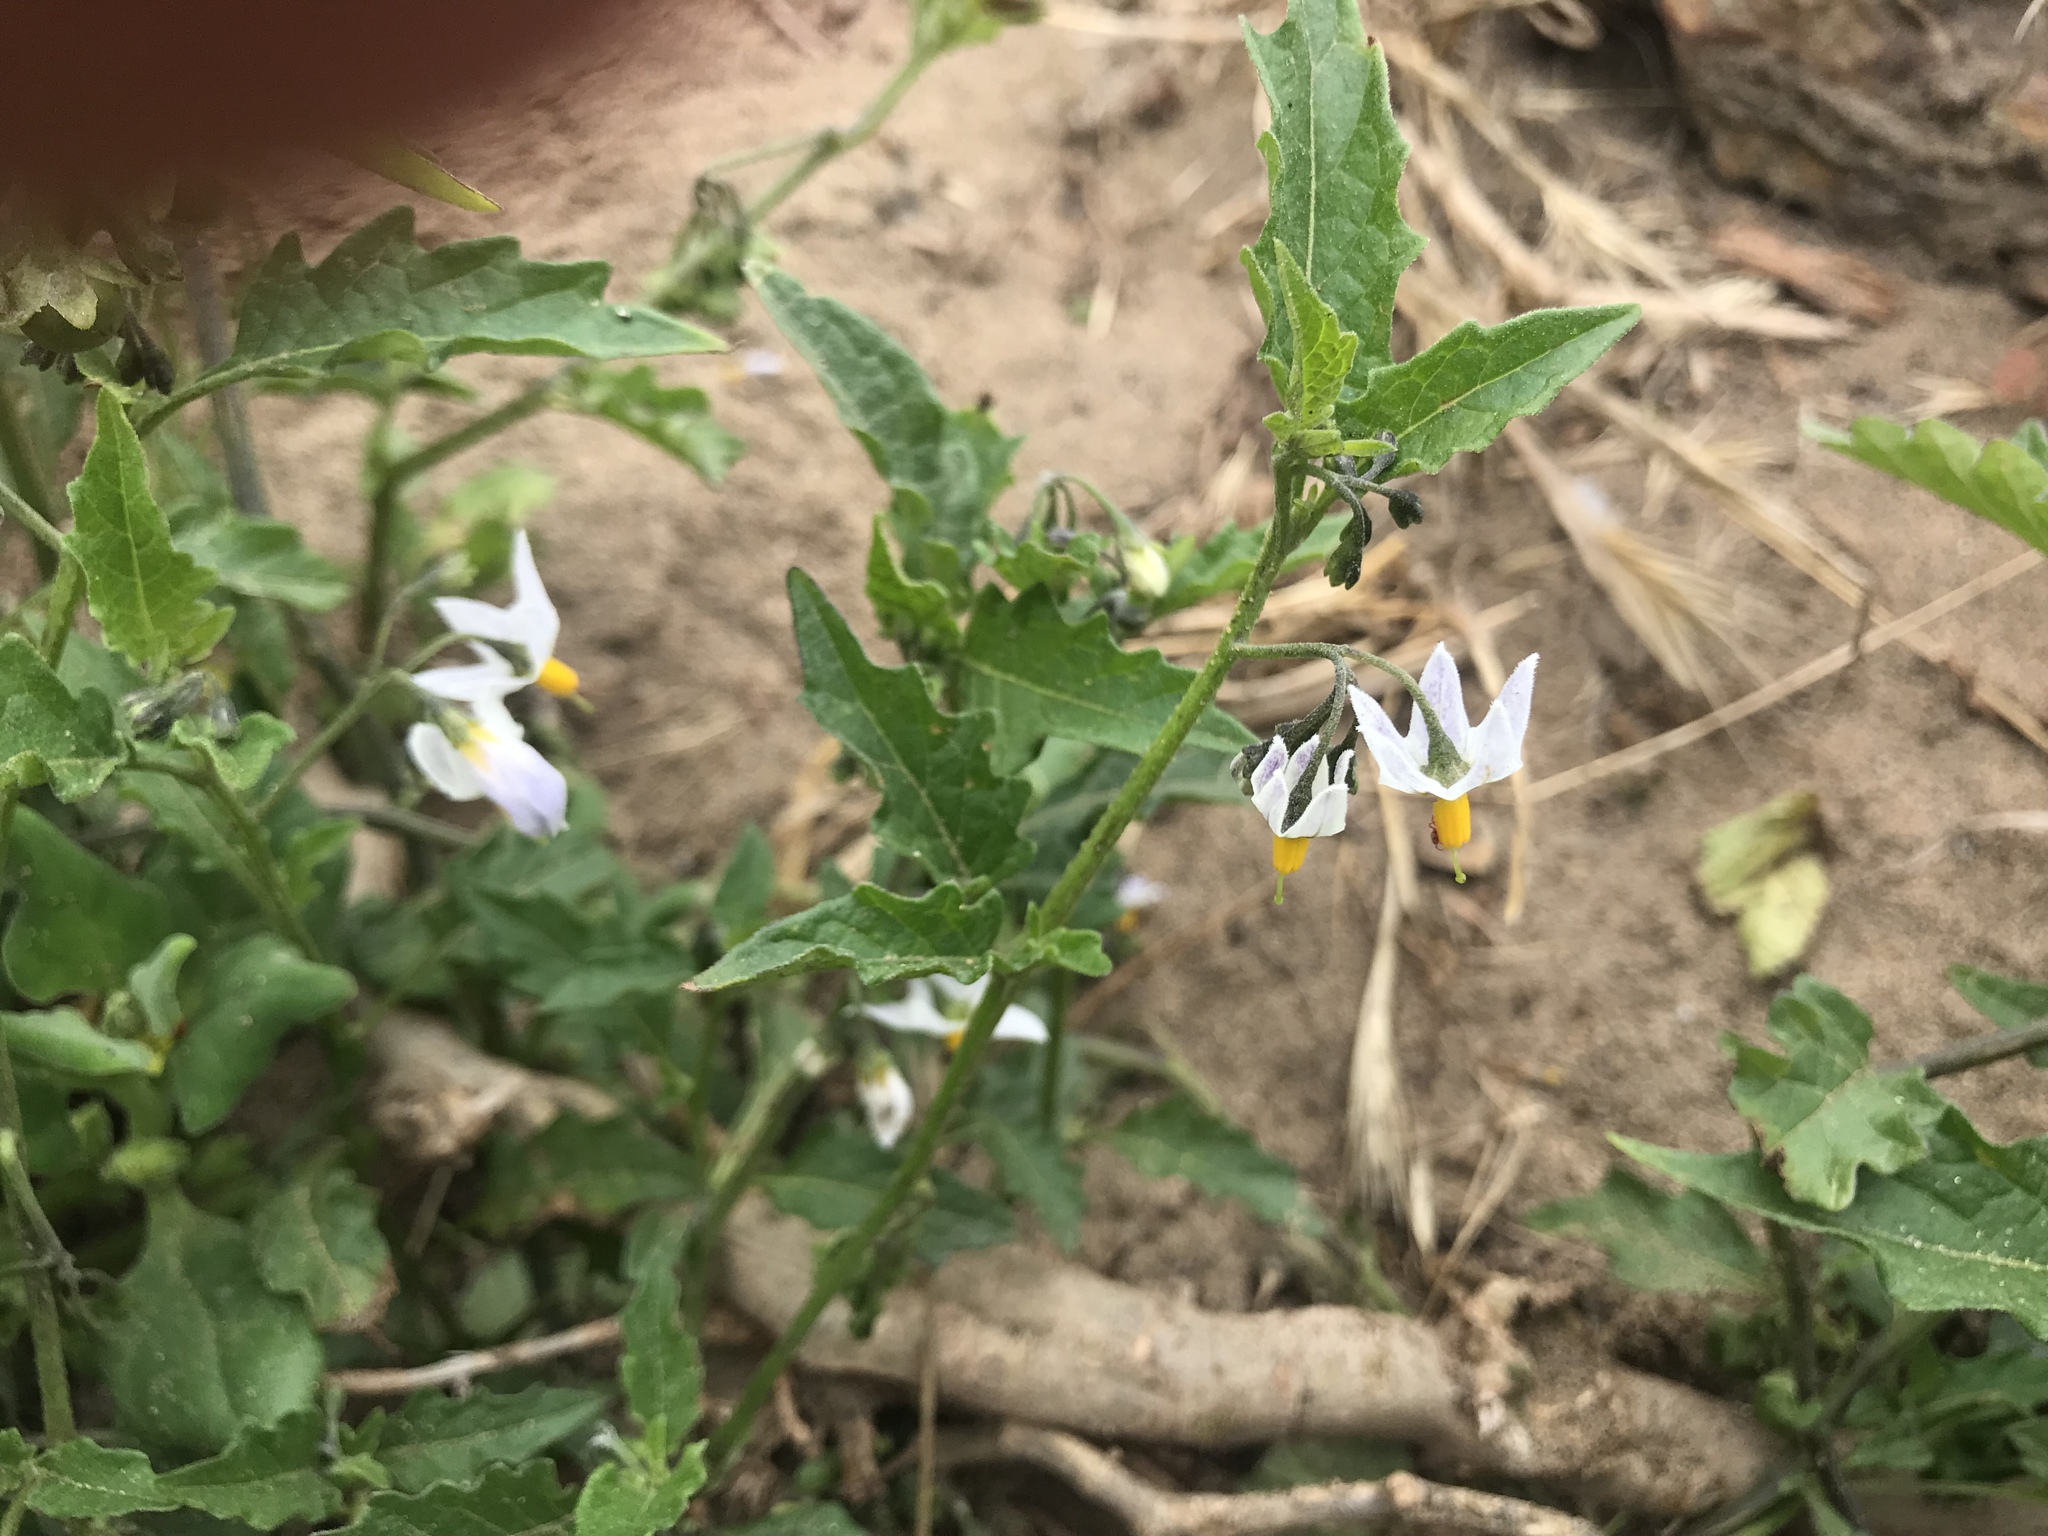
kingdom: Plantae
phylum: Tracheophyta
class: Magnoliopsida
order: Solanales
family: Solanaceae
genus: Solanum
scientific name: Solanum furcatum
